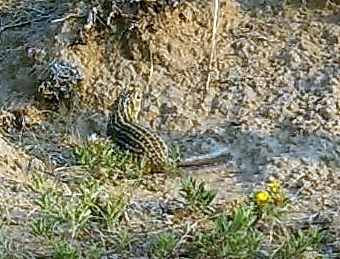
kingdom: Animalia
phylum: Chordata
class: Mammalia
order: Rodentia
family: Sciuridae
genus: Ictidomys
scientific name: Ictidomys tridecemlineatus
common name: Thirteen-lined ground squirrel
